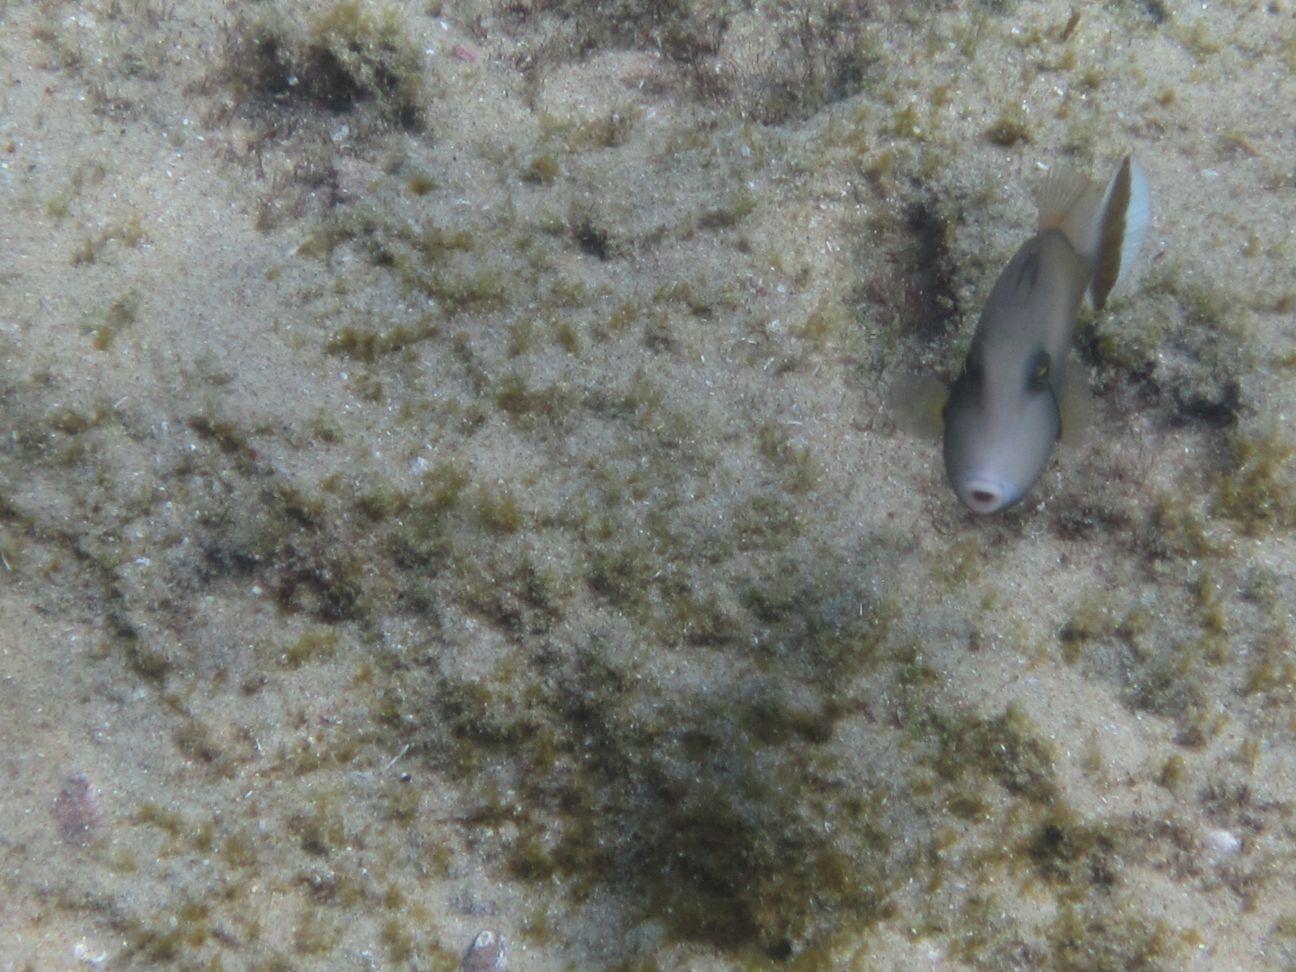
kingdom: Animalia
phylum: Chordata
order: Tetraodontiformes
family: Balistidae
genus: Sufflamen
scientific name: Sufflamen chrysopterum
